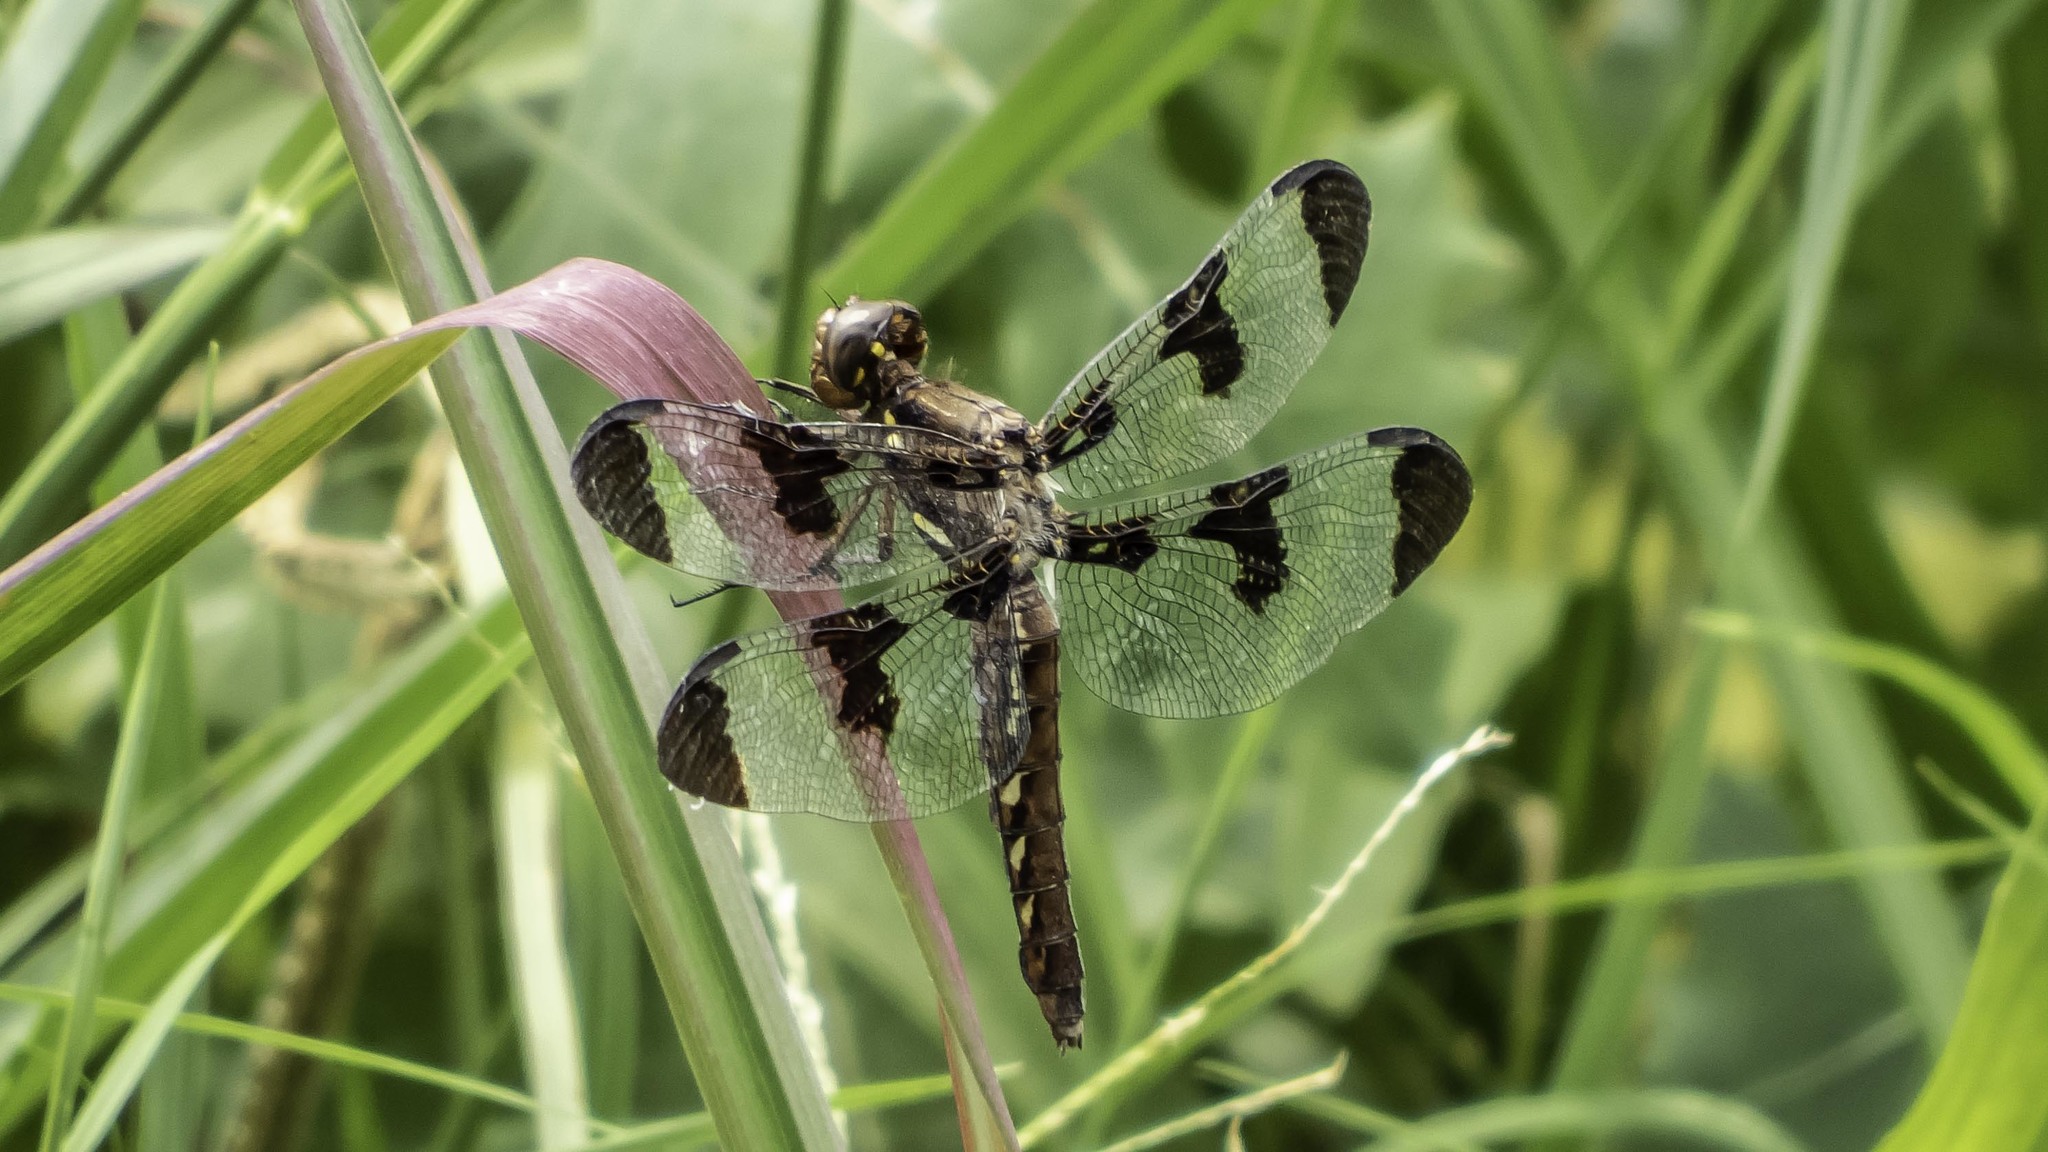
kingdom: Animalia
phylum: Arthropoda
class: Insecta
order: Odonata
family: Libellulidae
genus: Plathemis
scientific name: Plathemis lydia
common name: Common whitetail
